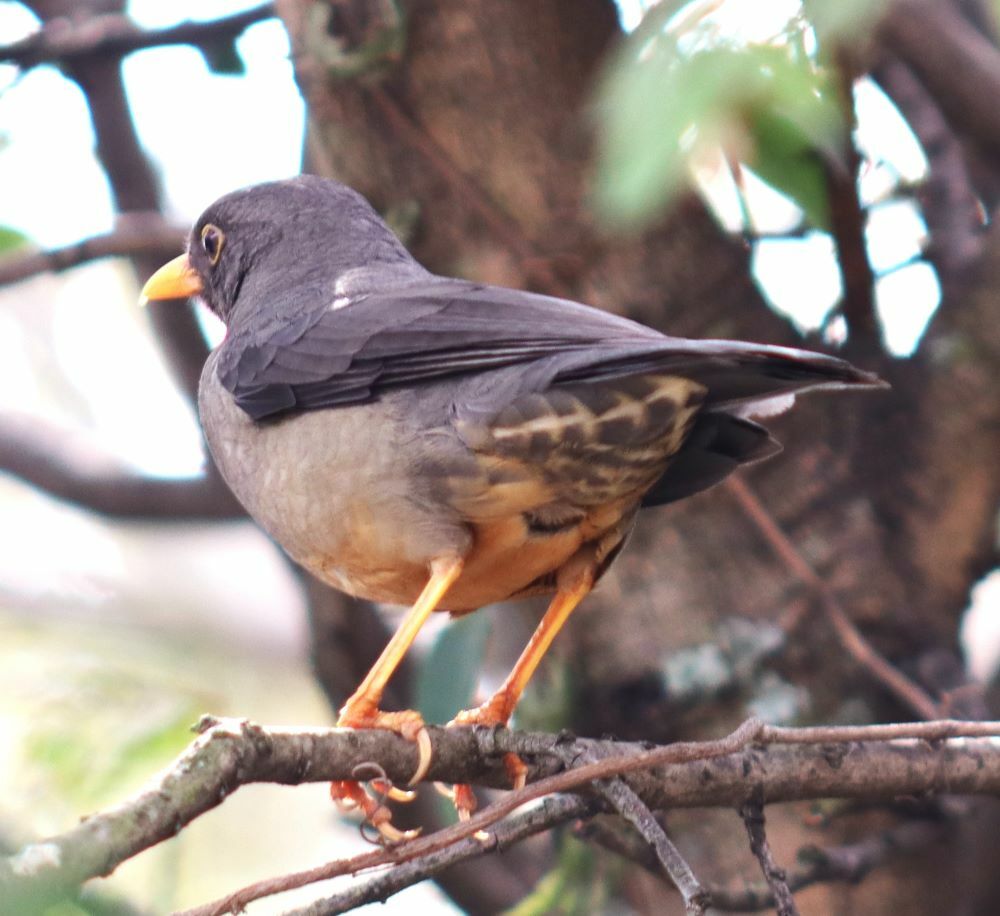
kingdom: Animalia
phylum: Chordata
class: Aves
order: Passeriformes
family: Turdidae
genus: Turdus
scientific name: Turdus smithi
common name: Karoo thrush
